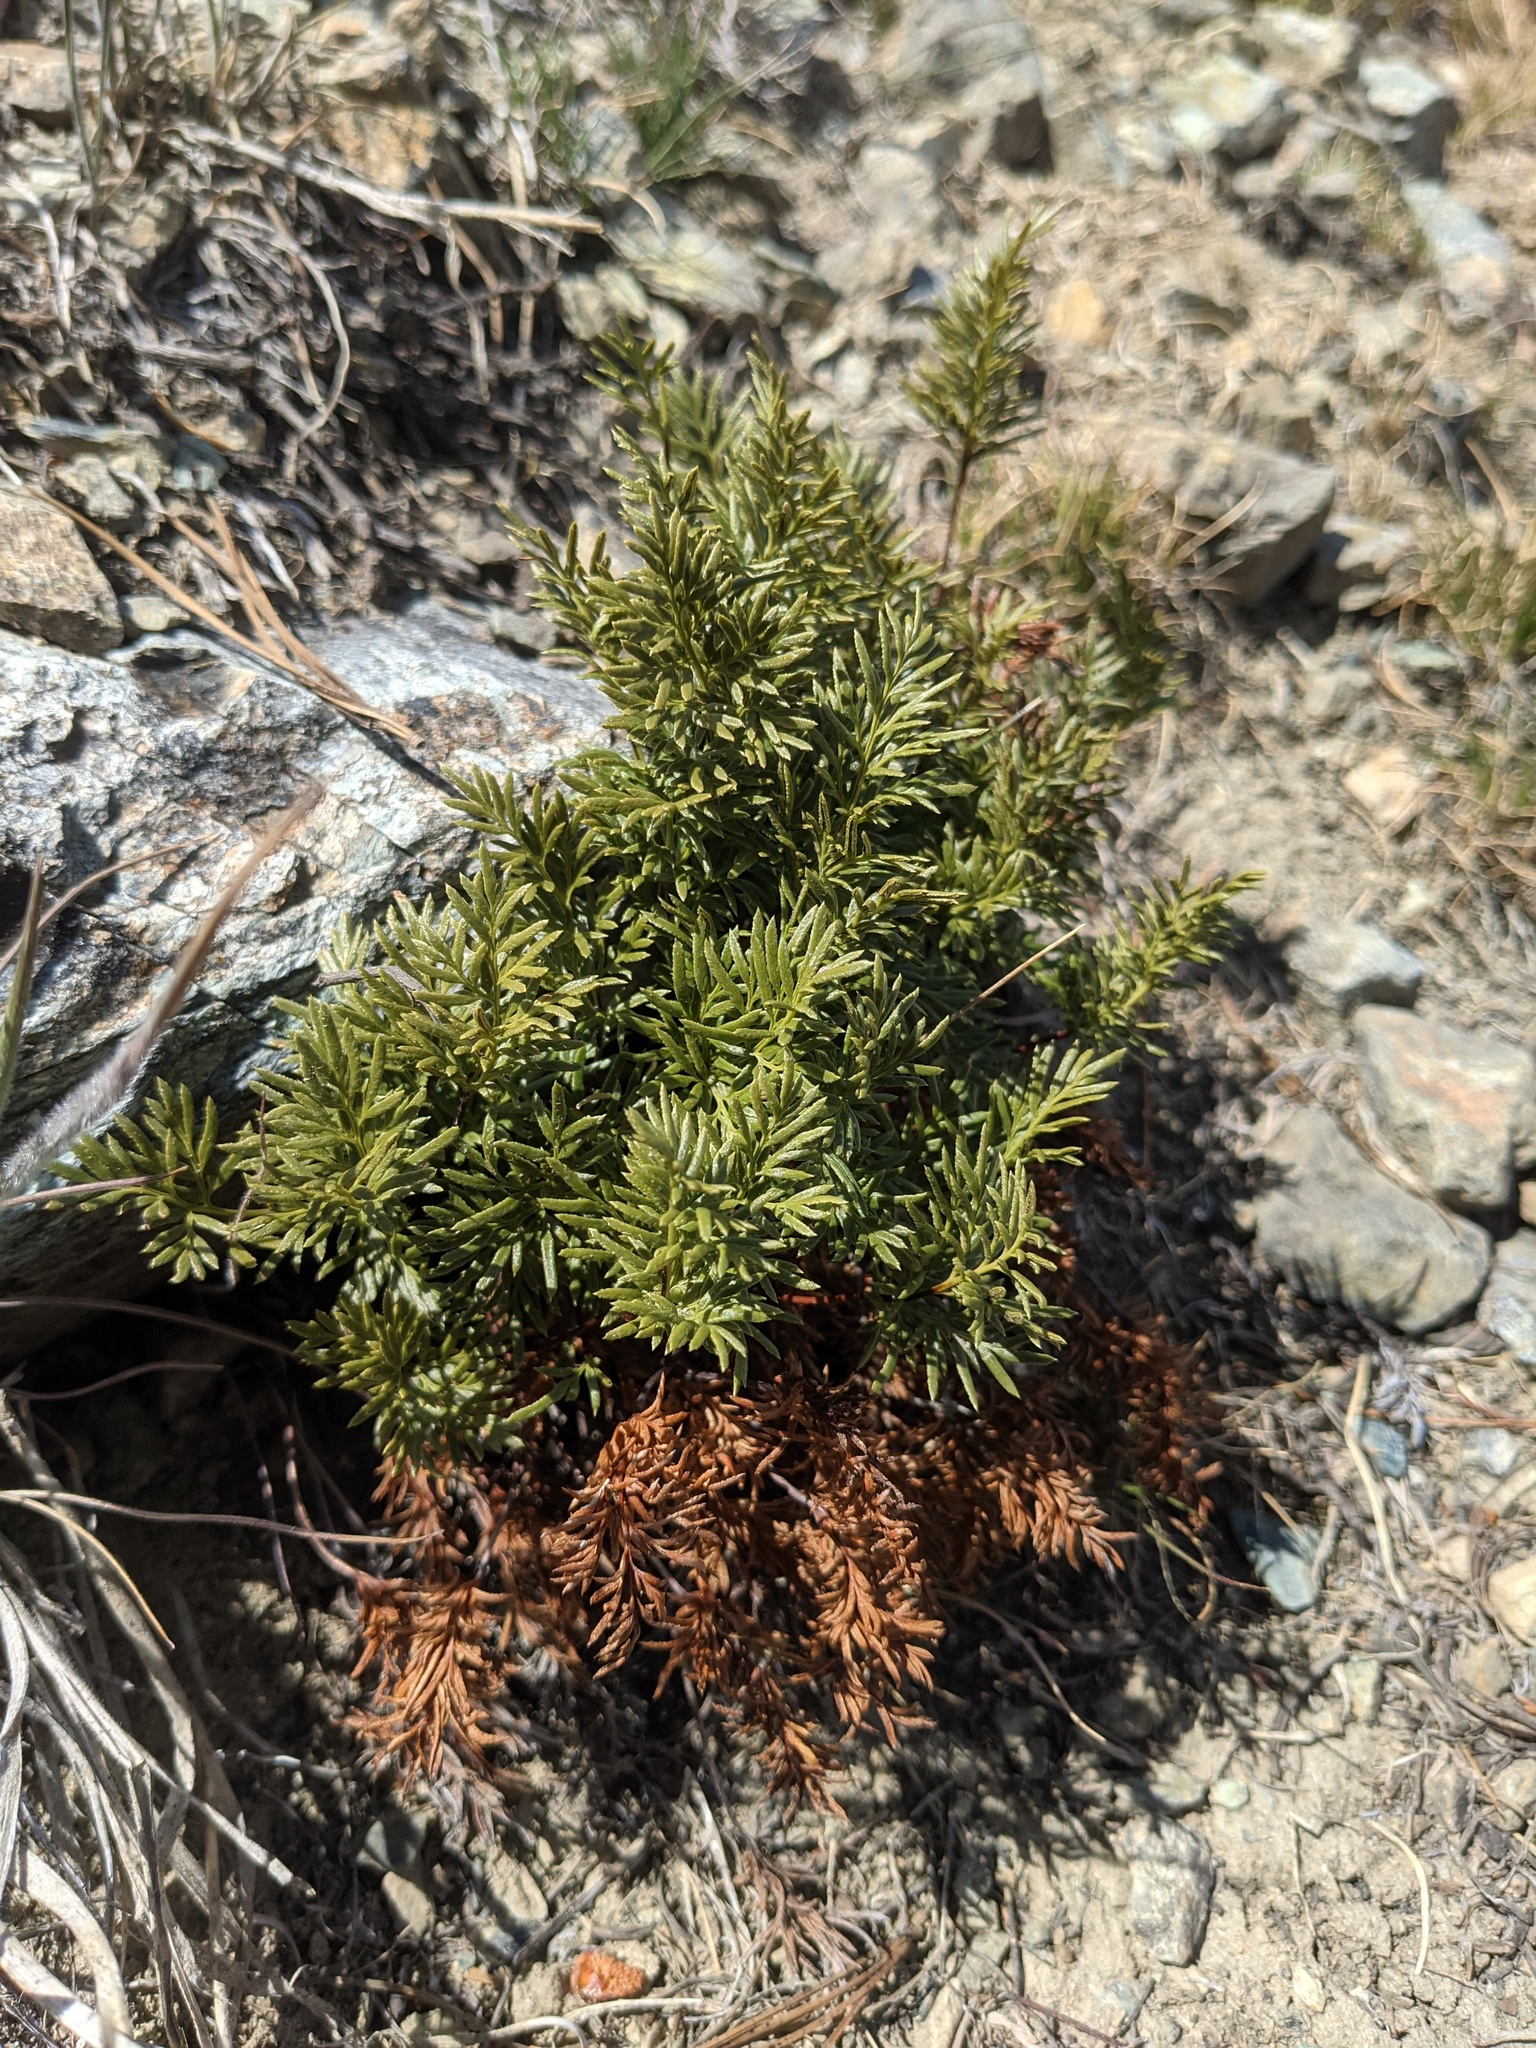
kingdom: Plantae
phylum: Tracheophyta
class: Polypodiopsida
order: Polypodiales
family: Pteridaceae
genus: Aspidotis
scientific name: Aspidotis densa
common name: Indian's dream
